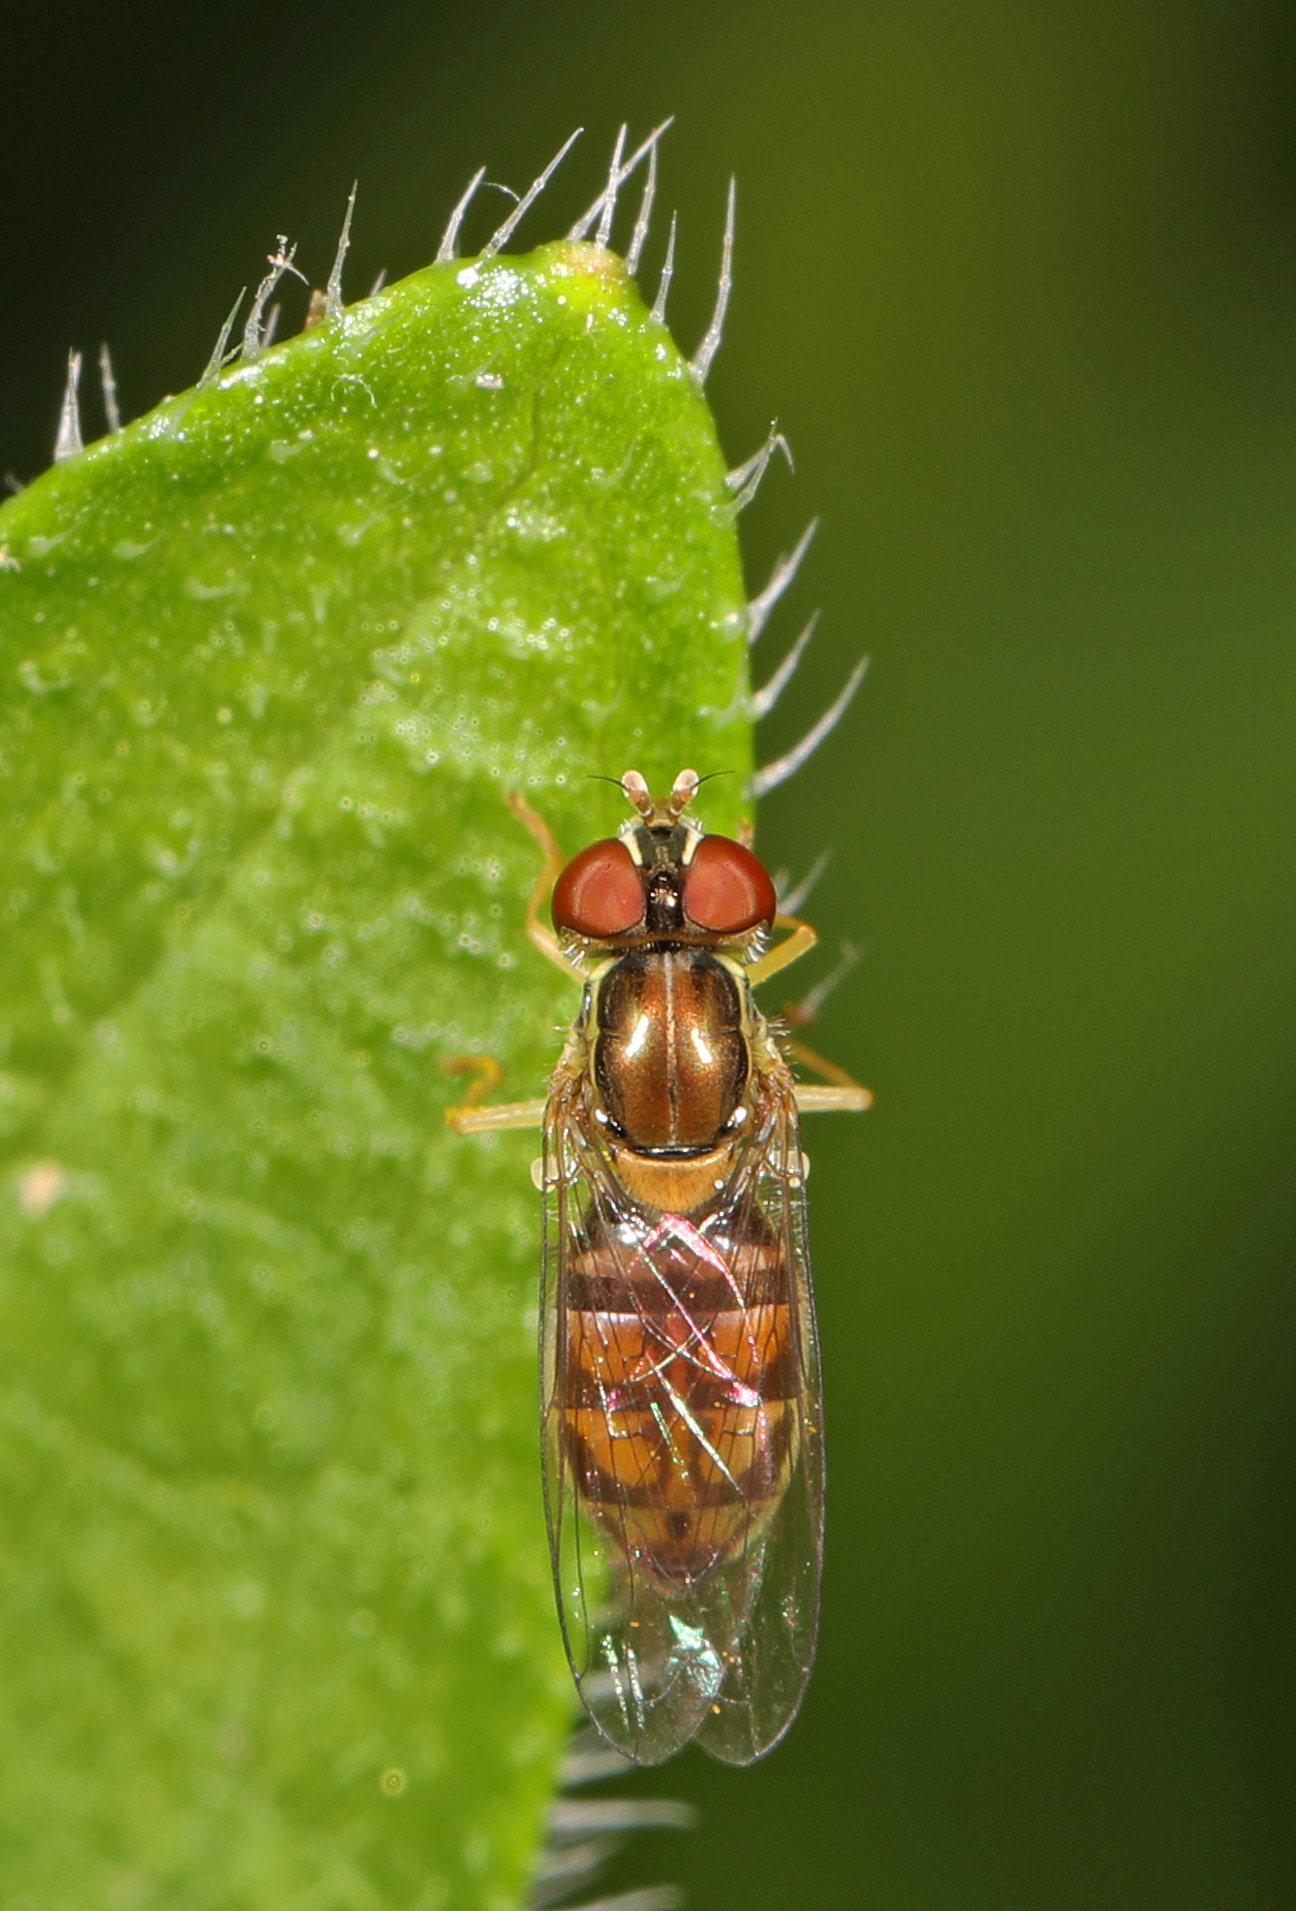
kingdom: Animalia
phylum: Arthropoda
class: Insecta
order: Diptera
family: Syrphidae
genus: Toxomerus
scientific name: Toxomerus marginatus
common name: Syrphid fly
